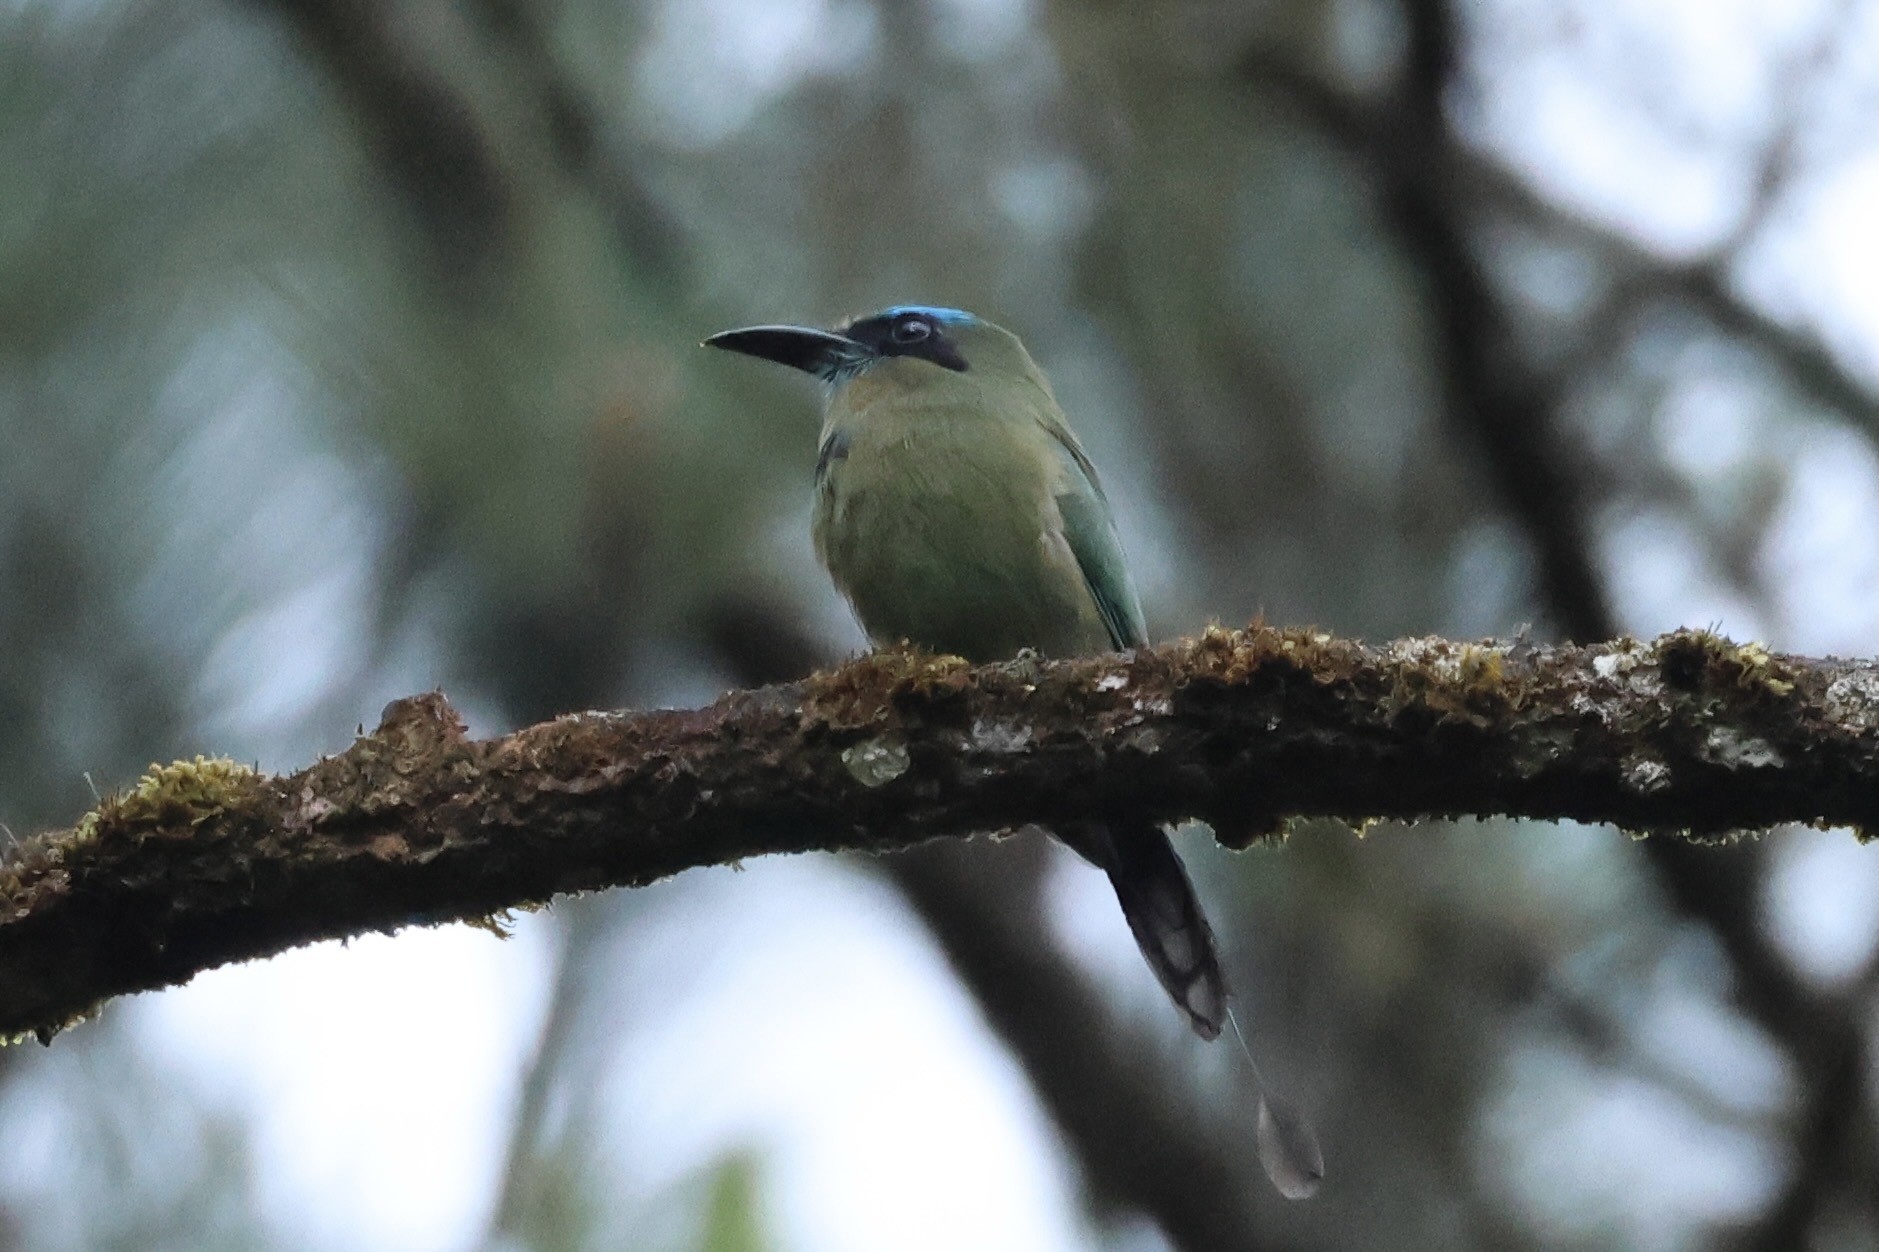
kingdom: Animalia
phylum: Chordata
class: Aves
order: Coraciiformes
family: Momotidae
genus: Electron
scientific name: Electron carinatum
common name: Keel-billed motmot
